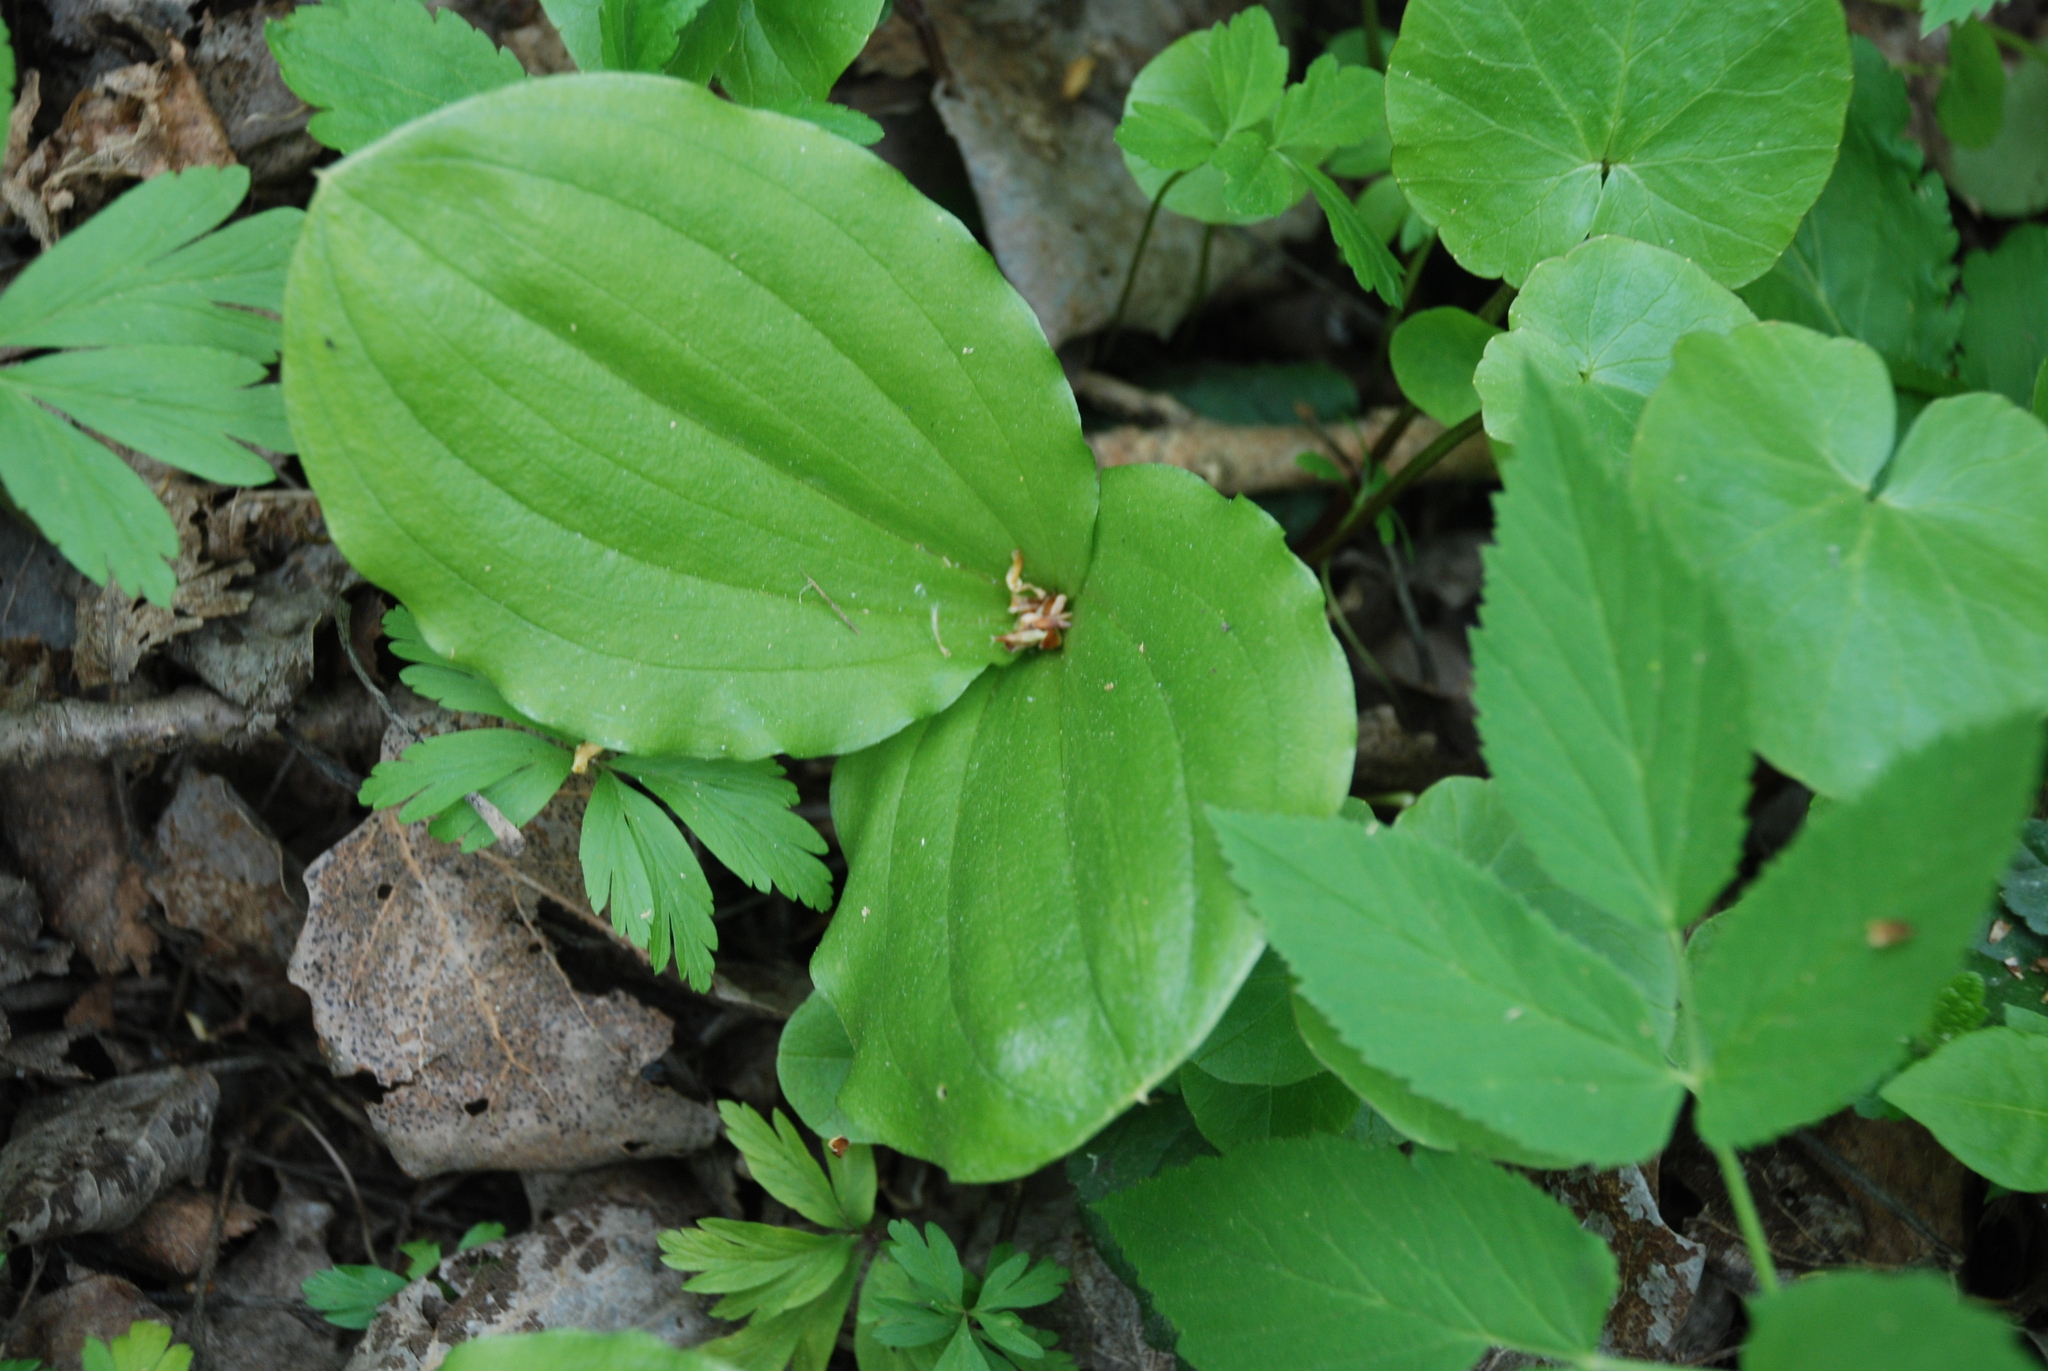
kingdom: Plantae
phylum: Tracheophyta
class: Liliopsida
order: Asparagales
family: Orchidaceae
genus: Neottia
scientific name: Neottia ovata
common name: Common twayblade
